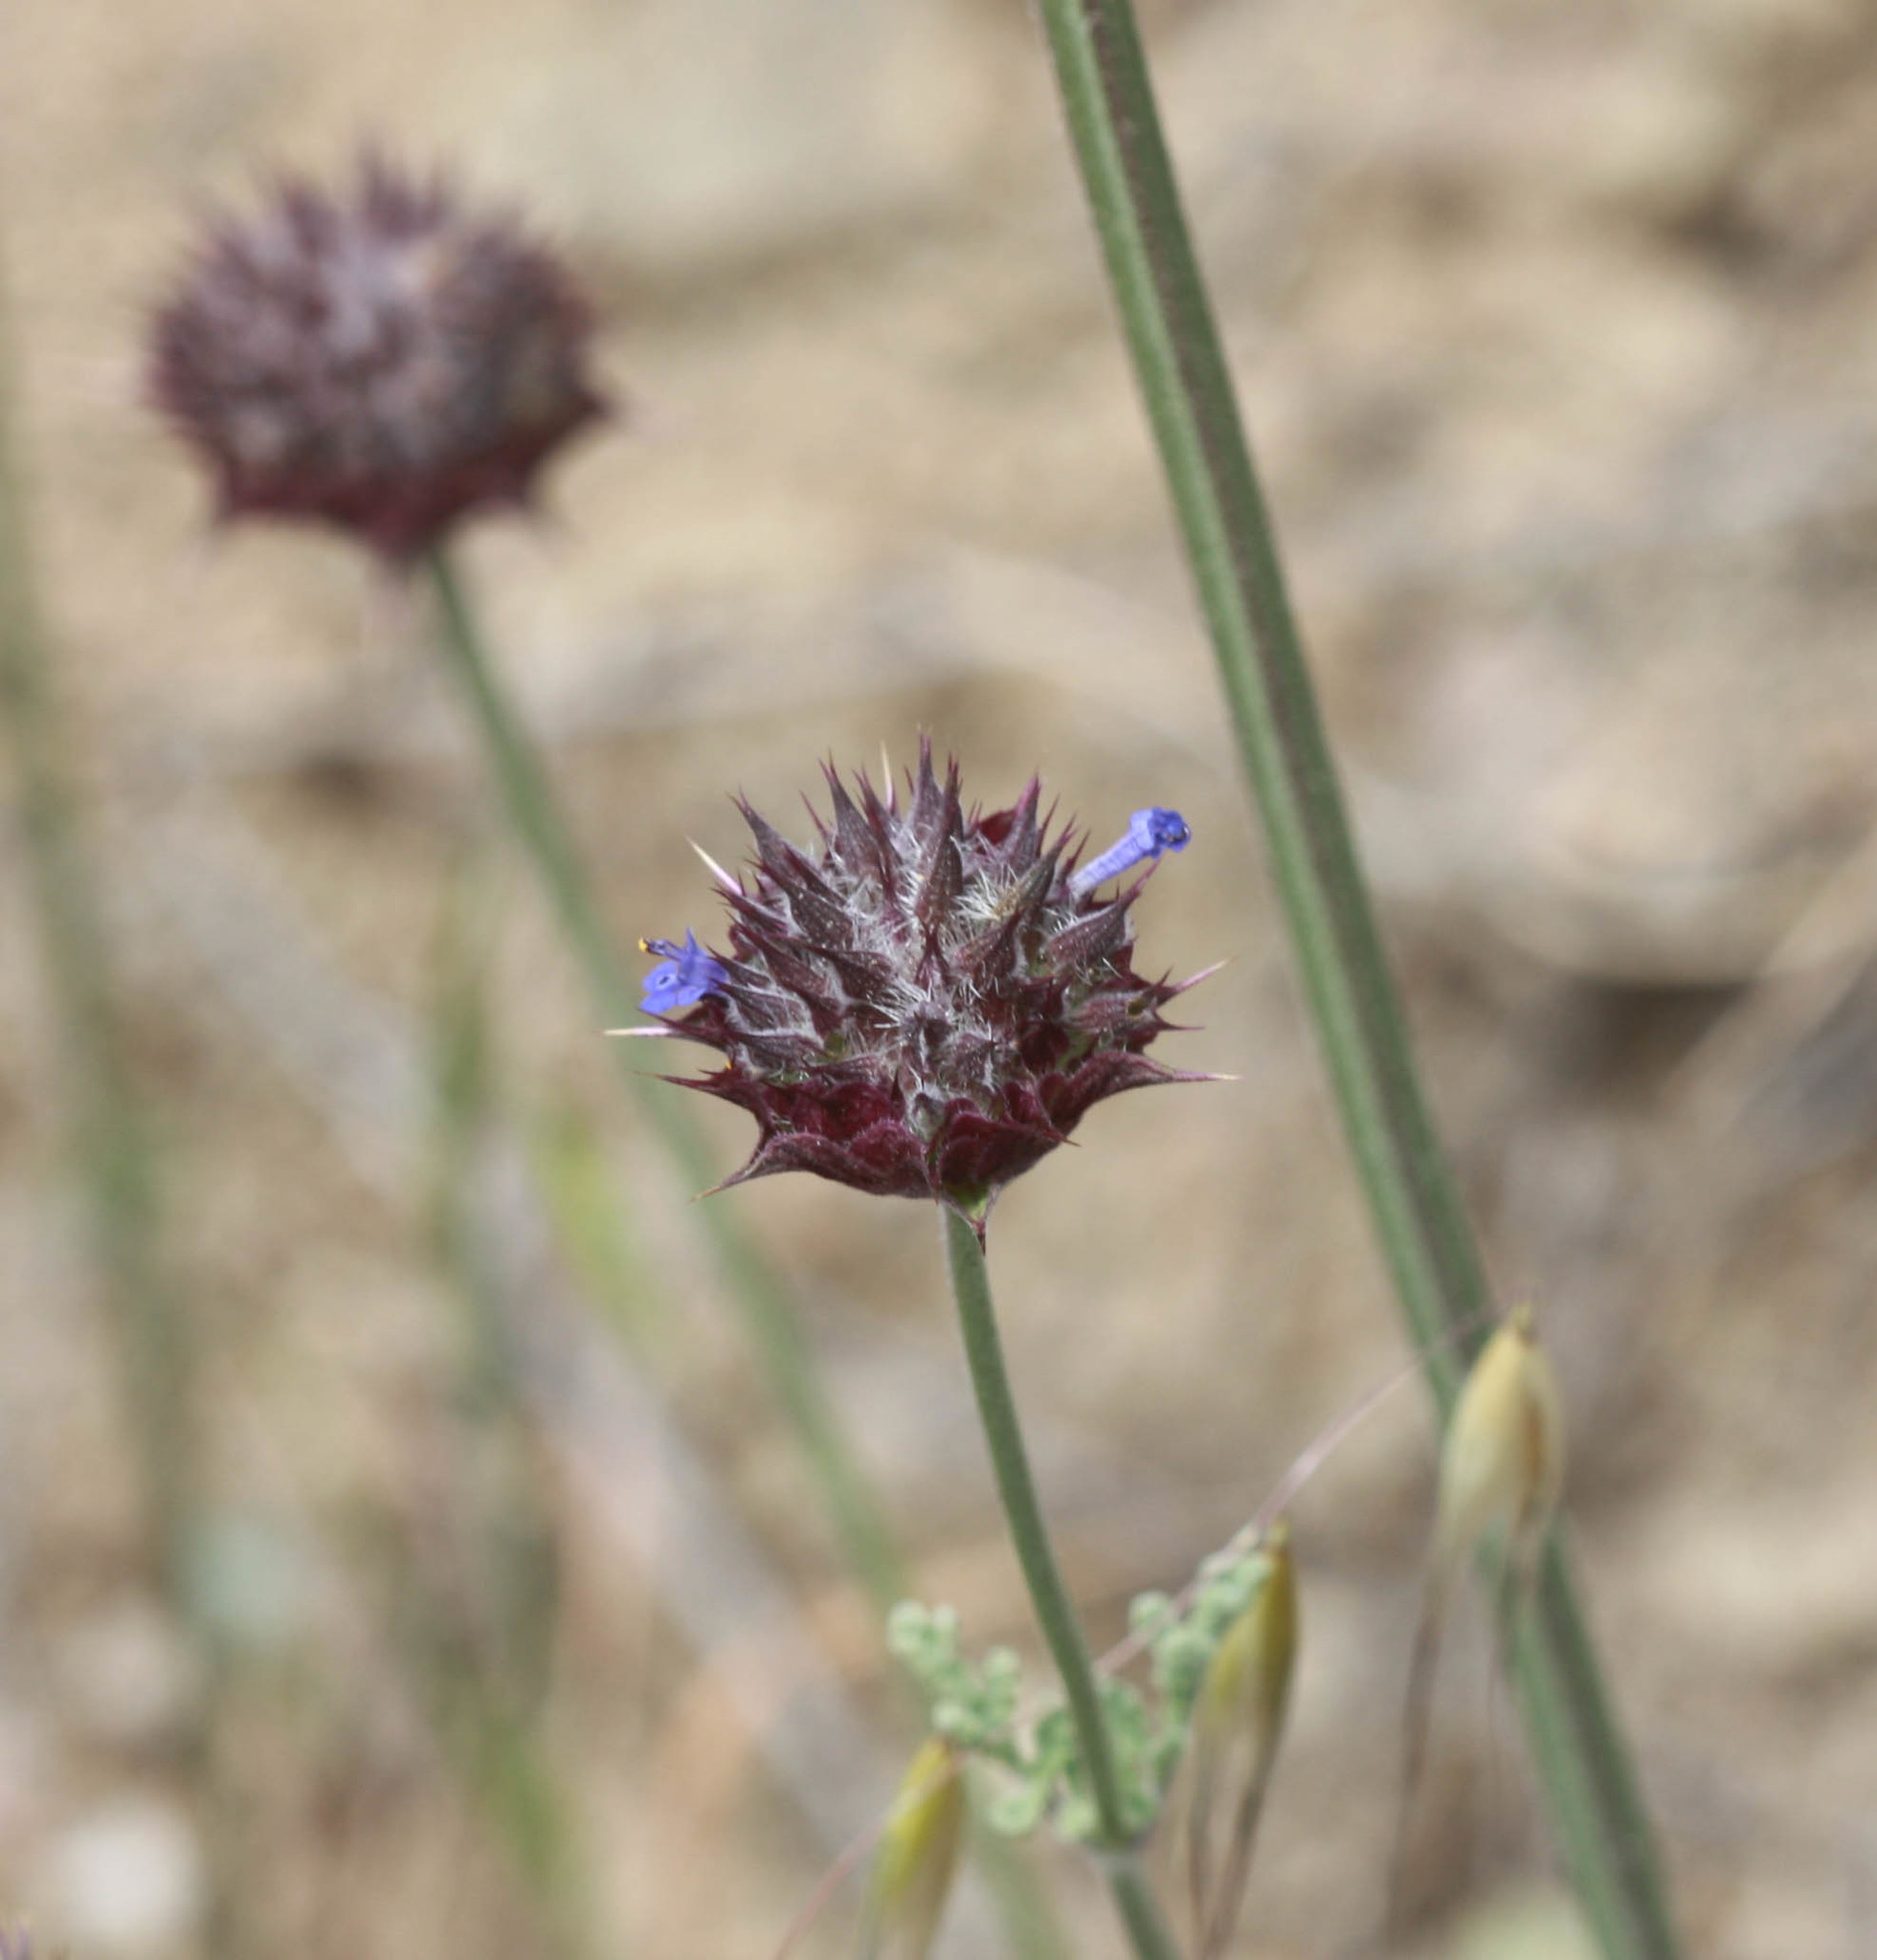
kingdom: Plantae
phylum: Tracheophyta
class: Magnoliopsida
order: Lamiales
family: Lamiaceae
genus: Salvia
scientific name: Salvia columbariae
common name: Chia
